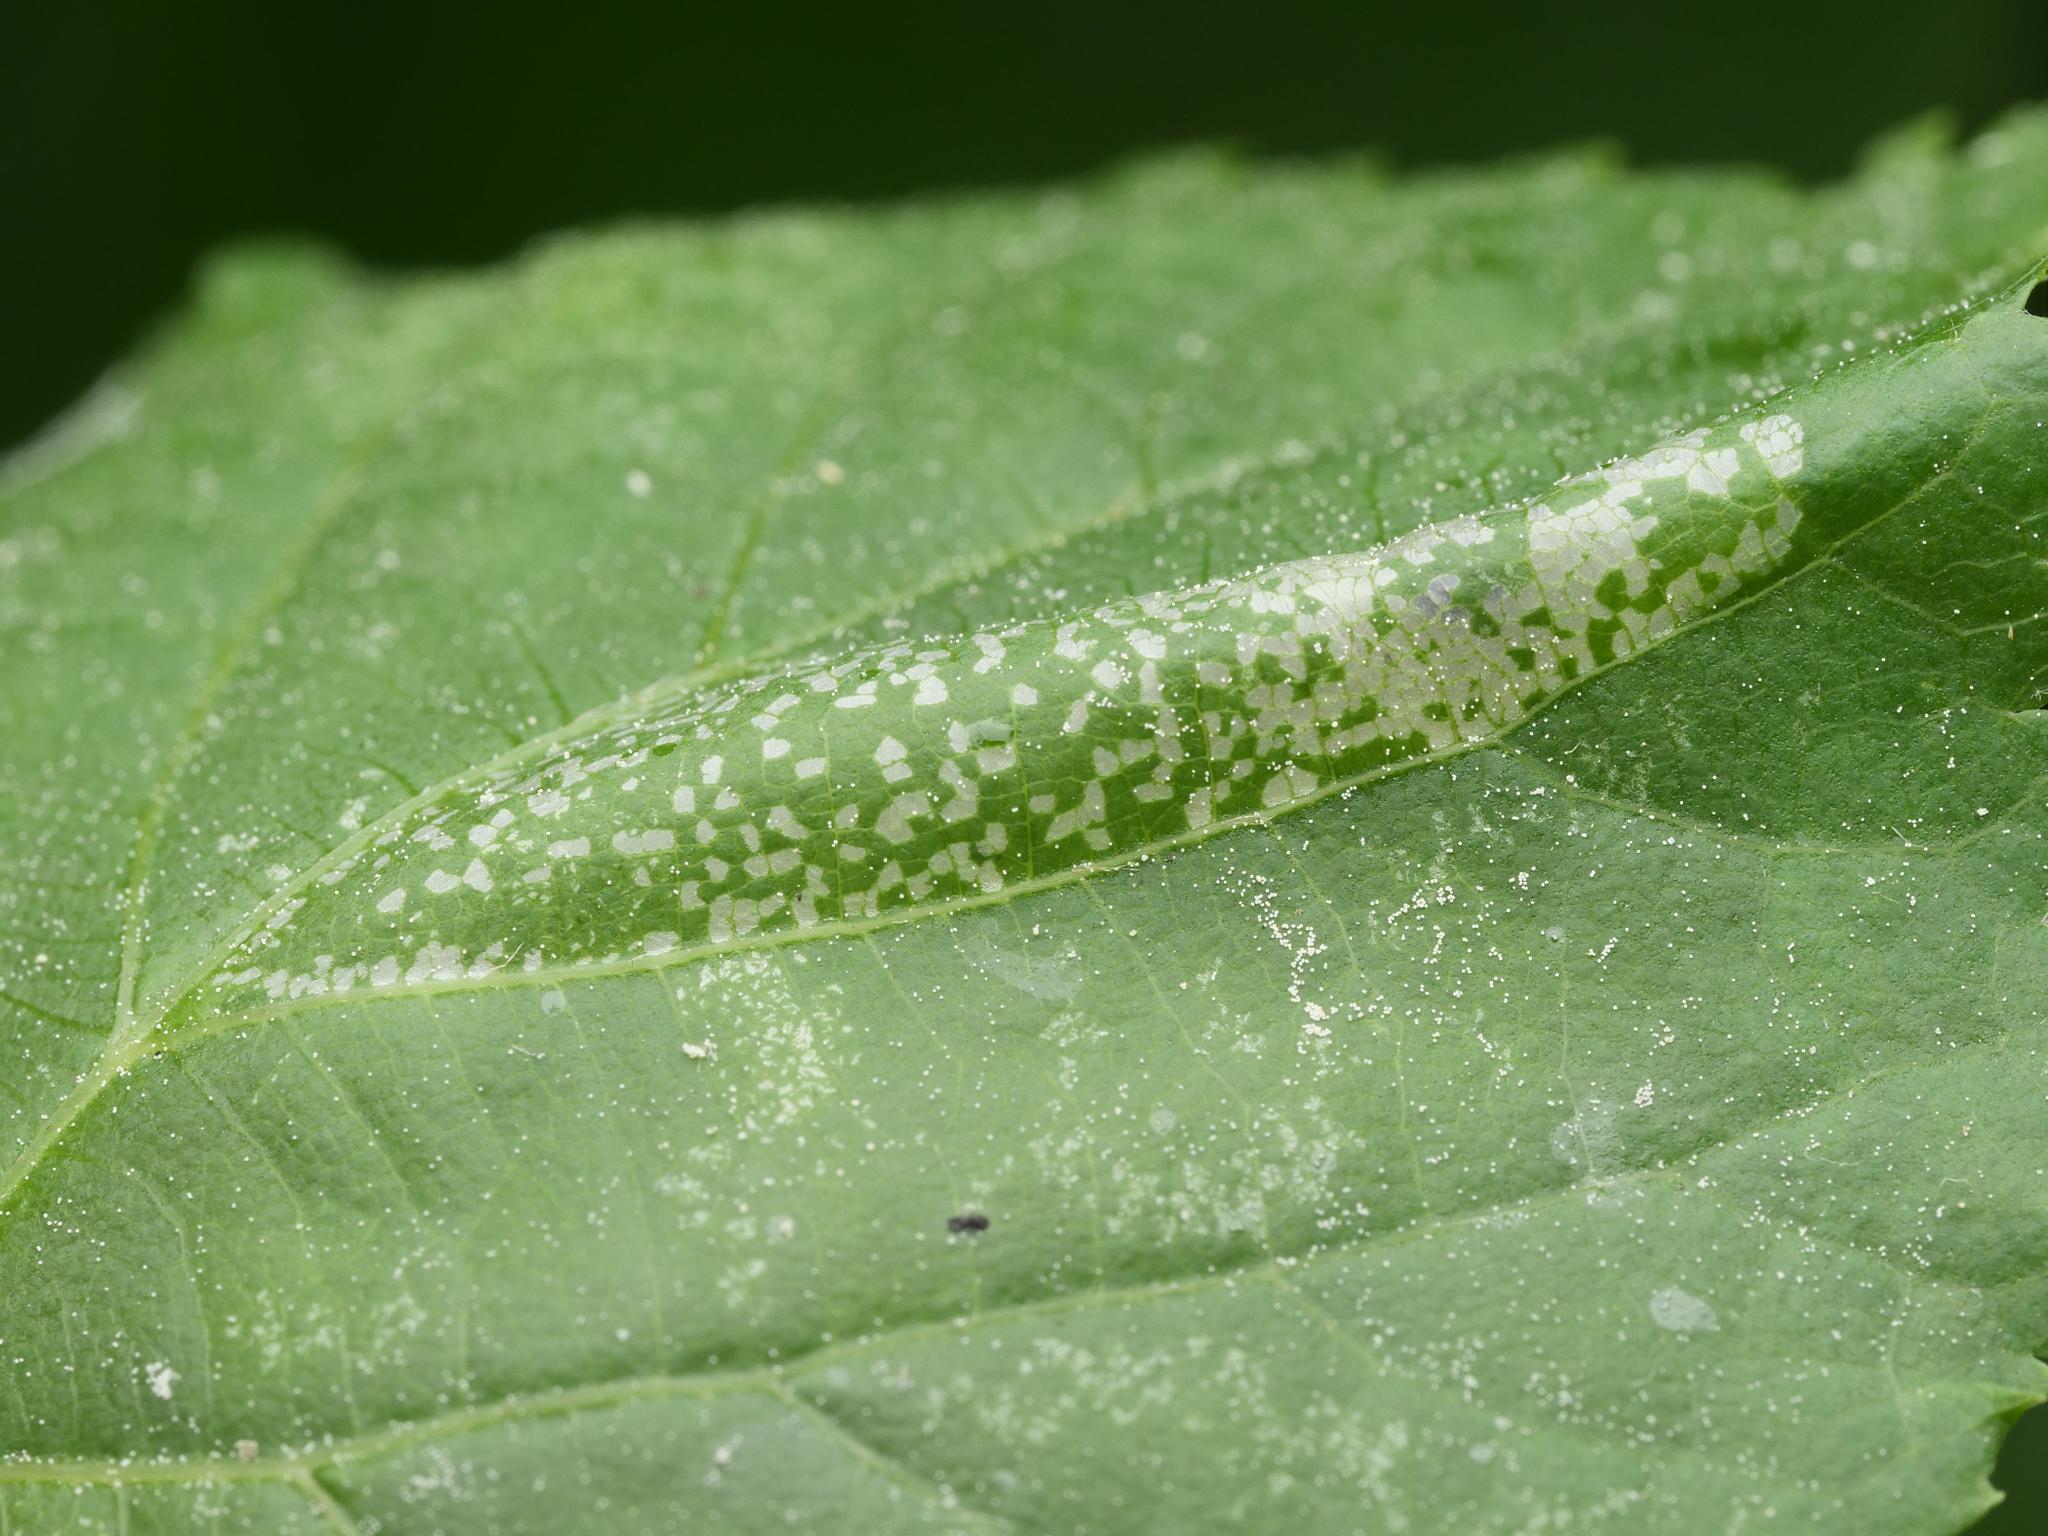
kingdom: Animalia
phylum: Arthropoda
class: Insecta
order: Lepidoptera
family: Gracillariidae
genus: Phyllonorycter
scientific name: Phyllonorycter issikii
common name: Linden midget
